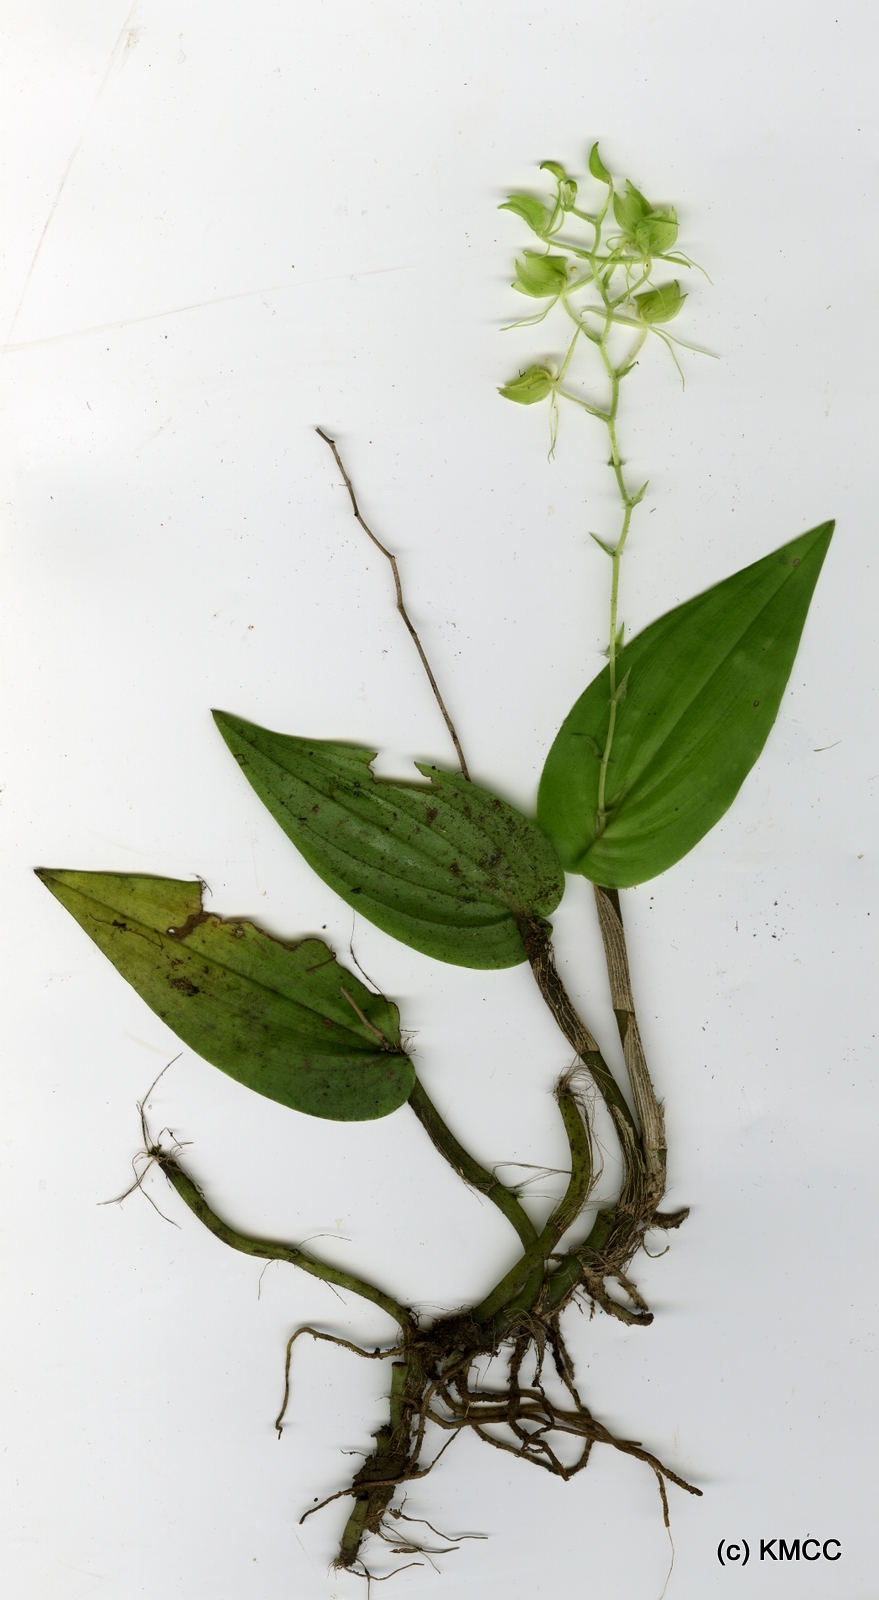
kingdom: Plantae
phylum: Tracheophyta
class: Liliopsida
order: Asparagales
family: Orchidaceae
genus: Liparis
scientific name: Liparis clareae
